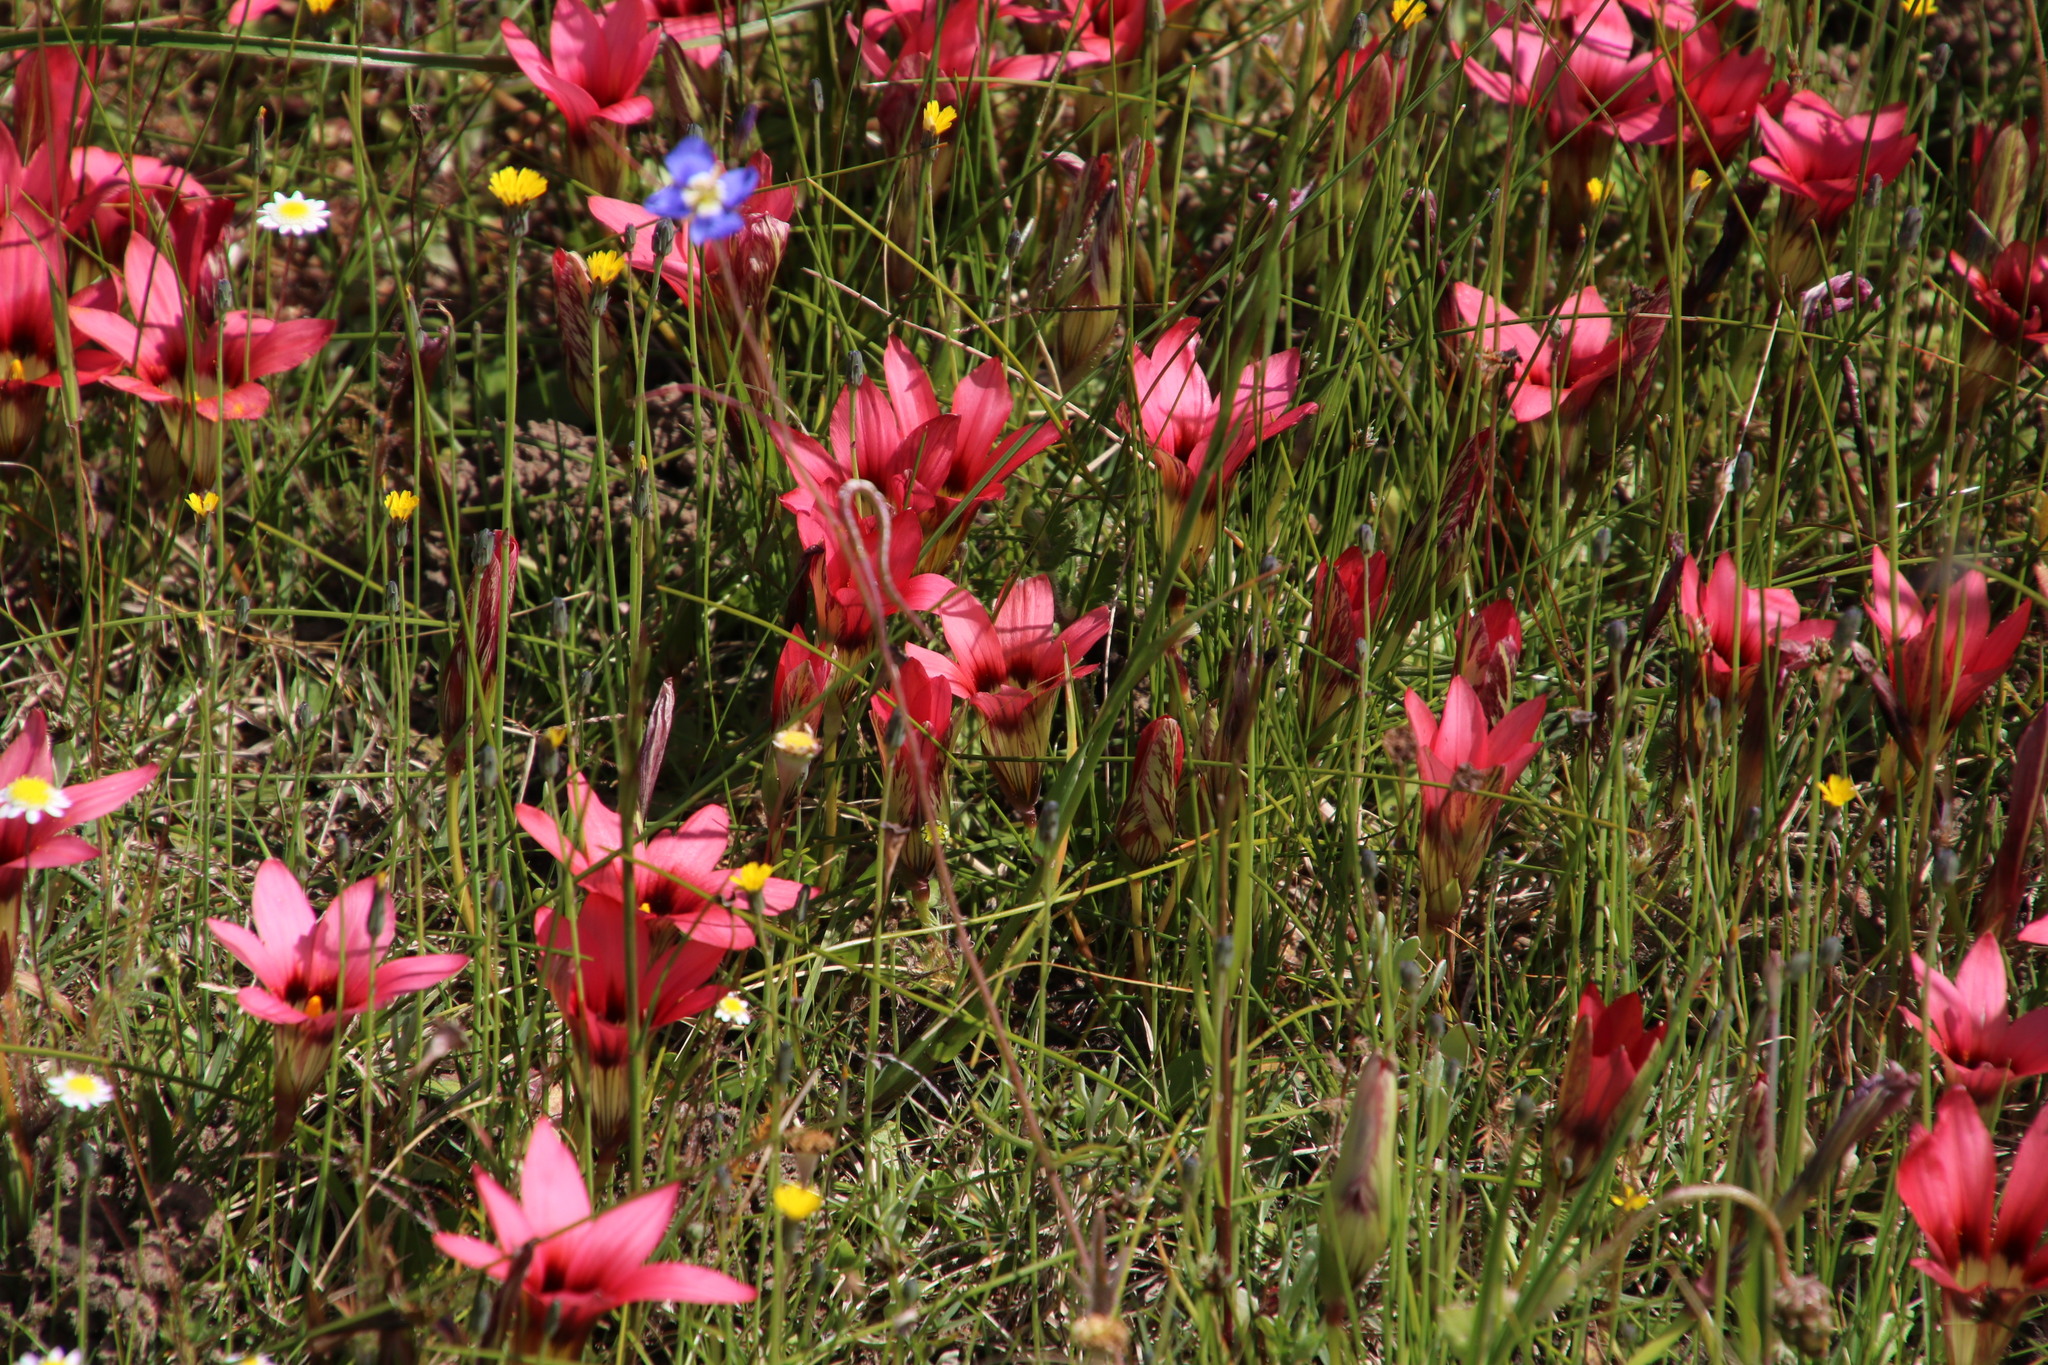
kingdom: Plantae
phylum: Tracheophyta
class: Liliopsida
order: Asparagales
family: Iridaceae
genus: Romulea
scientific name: Romulea hirsuta
